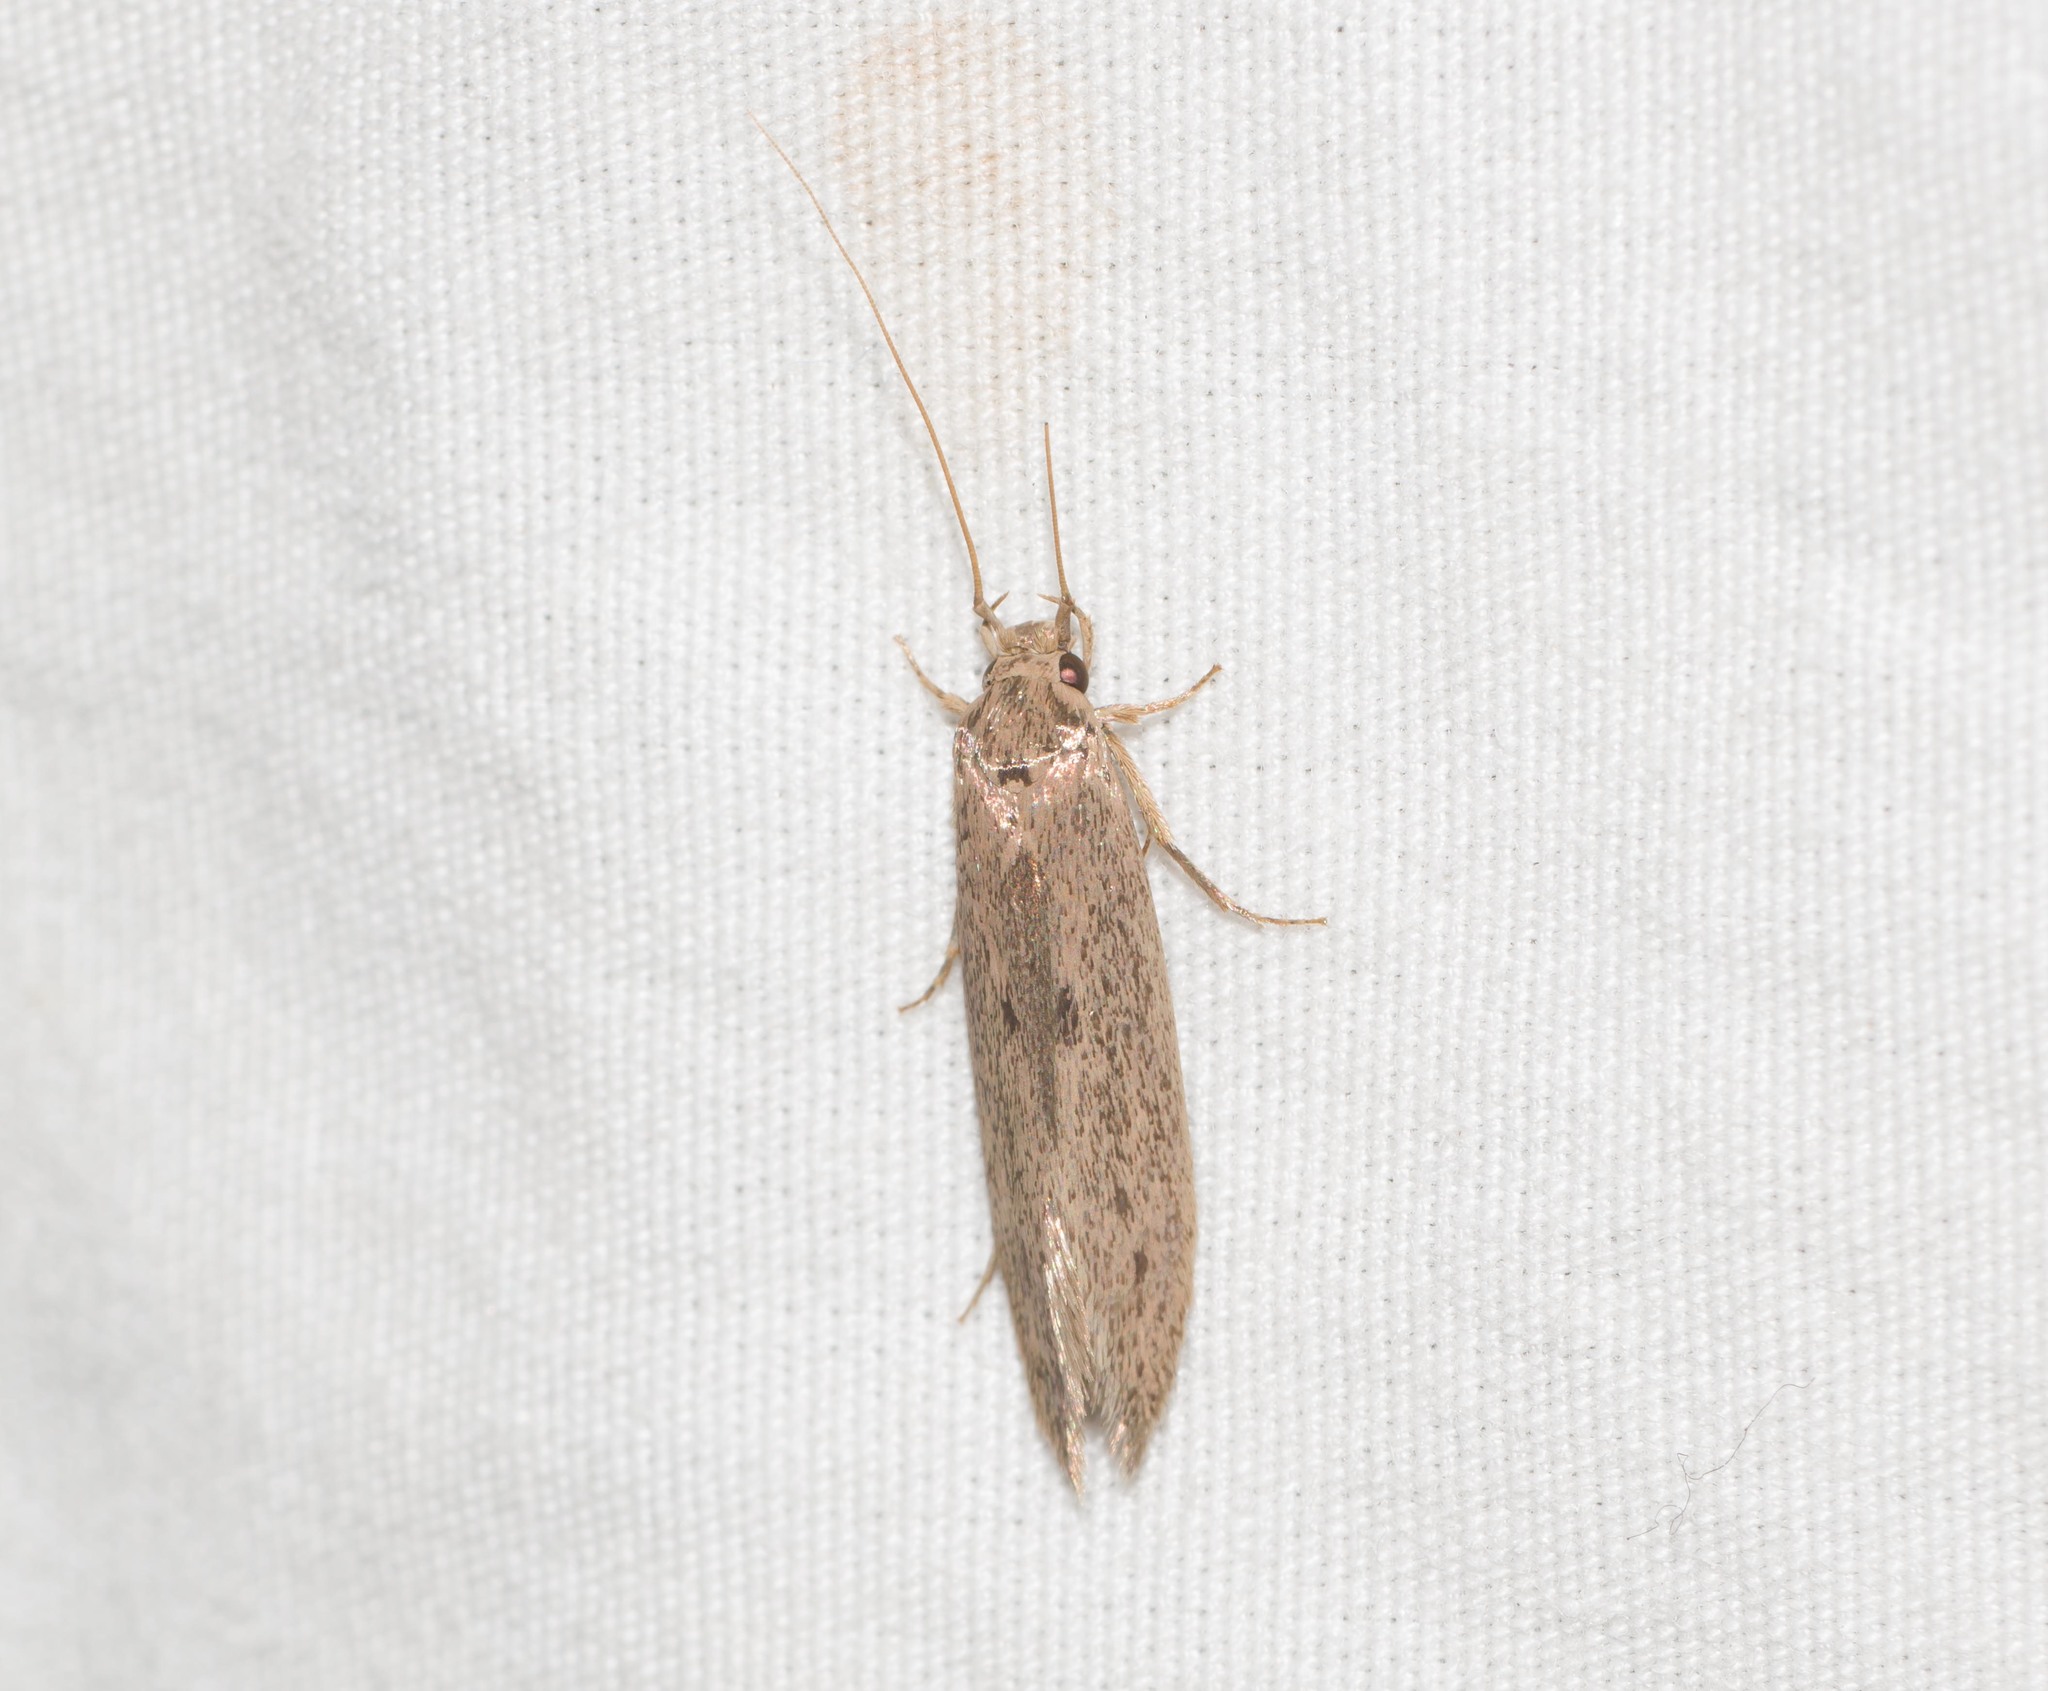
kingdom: Animalia
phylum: Arthropoda
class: Insecta
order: Lepidoptera
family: Tineidae
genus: Opogona
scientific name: Opogona sacchari
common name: Banana bud moth
